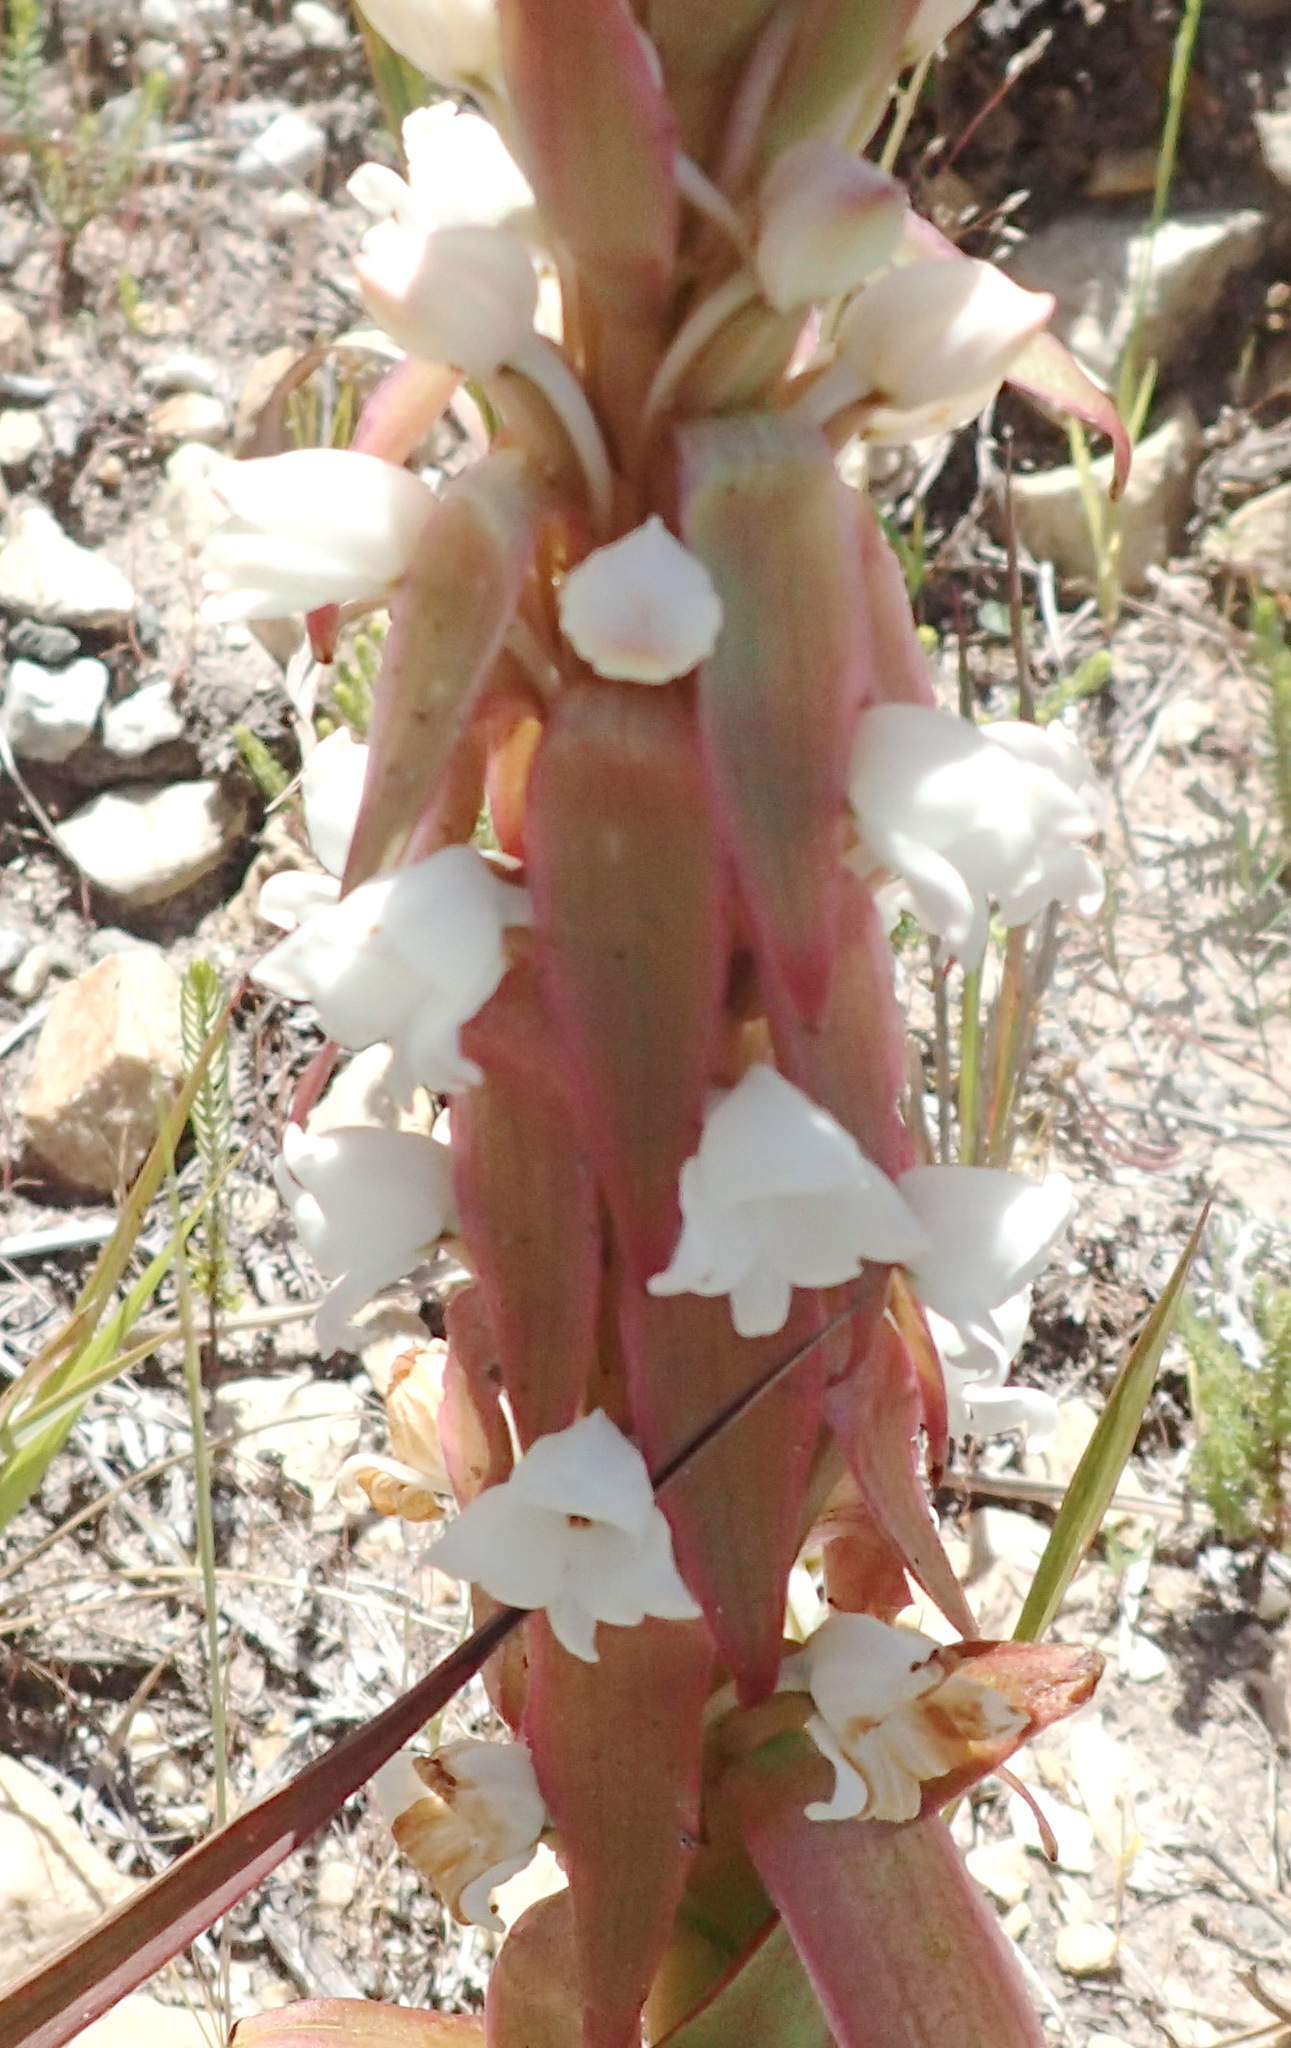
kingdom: Plantae
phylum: Tracheophyta
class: Liliopsida
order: Asparagales
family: Orchidaceae
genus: Satyrium
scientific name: Satyrium acuminatum
